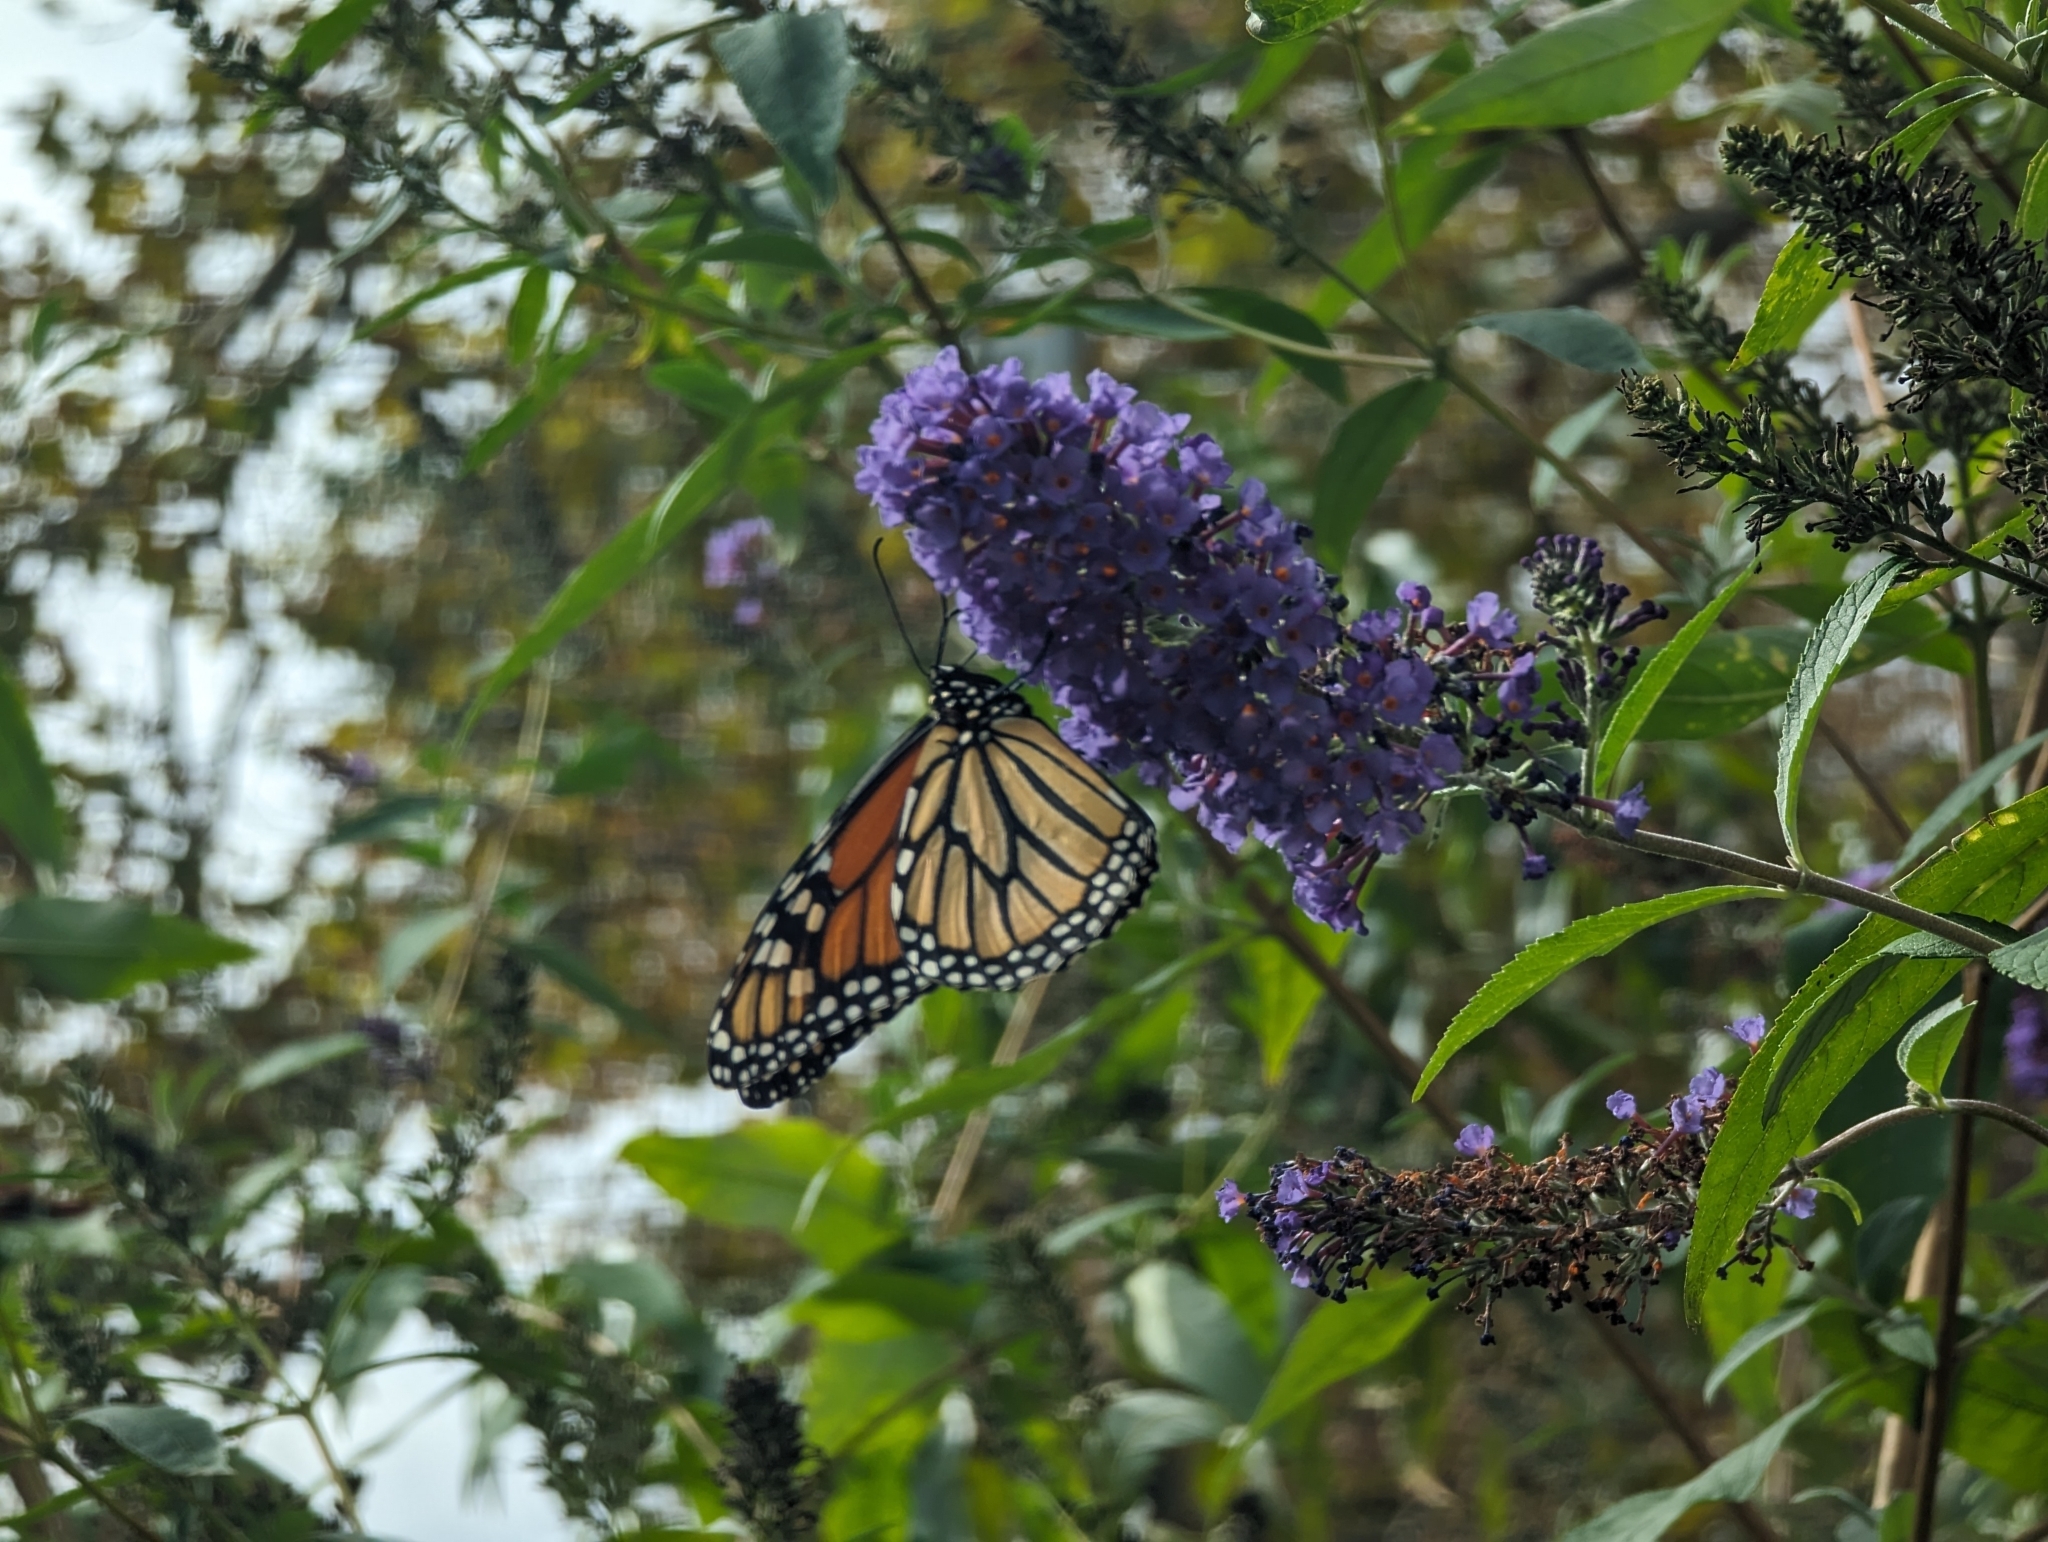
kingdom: Plantae
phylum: Tracheophyta
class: Magnoliopsida
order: Lamiales
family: Scrophulariaceae
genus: Buddleja
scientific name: Buddleja davidii
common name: Butterfly-bush
